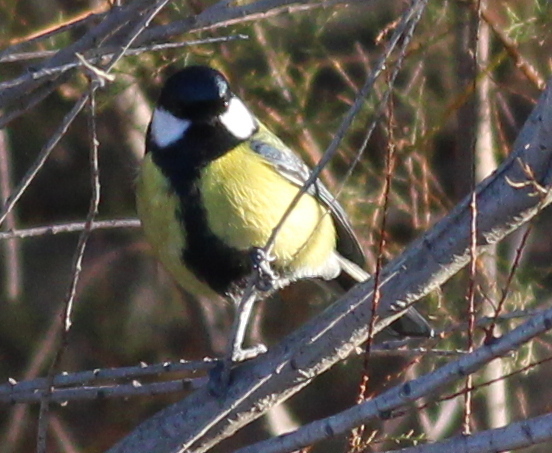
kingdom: Animalia
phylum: Chordata
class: Aves
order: Passeriformes
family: Paridae
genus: Parus
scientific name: Parus major
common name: Great tit
